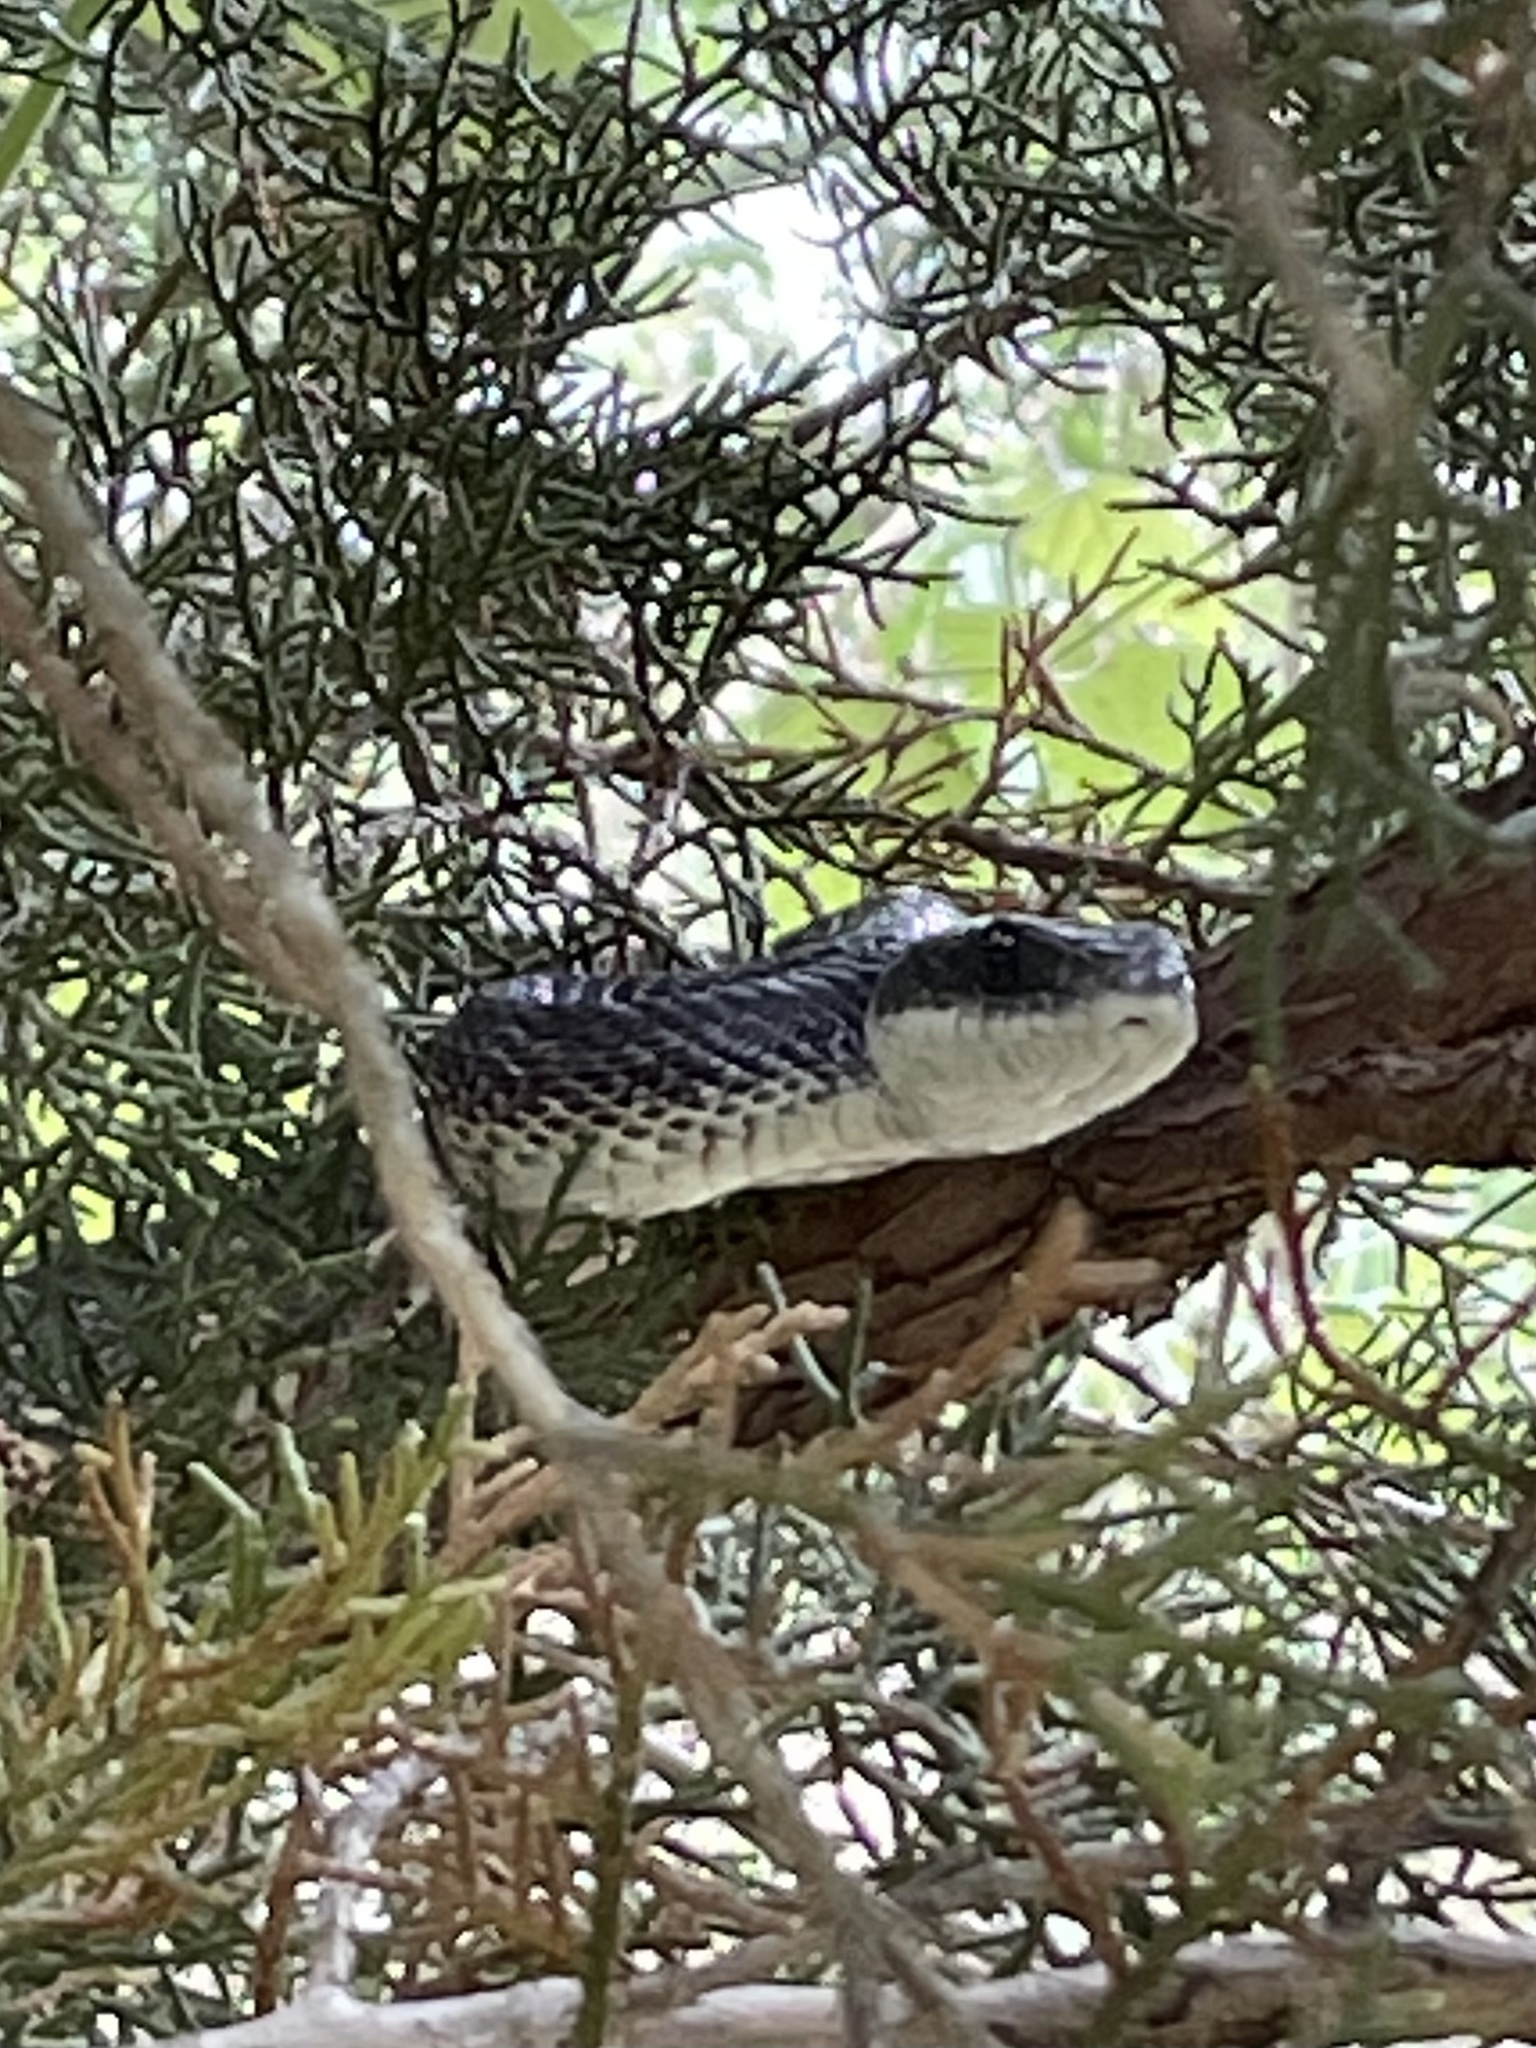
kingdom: Animalia
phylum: Chordata
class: Squamata
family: Colubridae
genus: Pantherophis
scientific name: Pantherophis obsoletus
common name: Black rat snake
